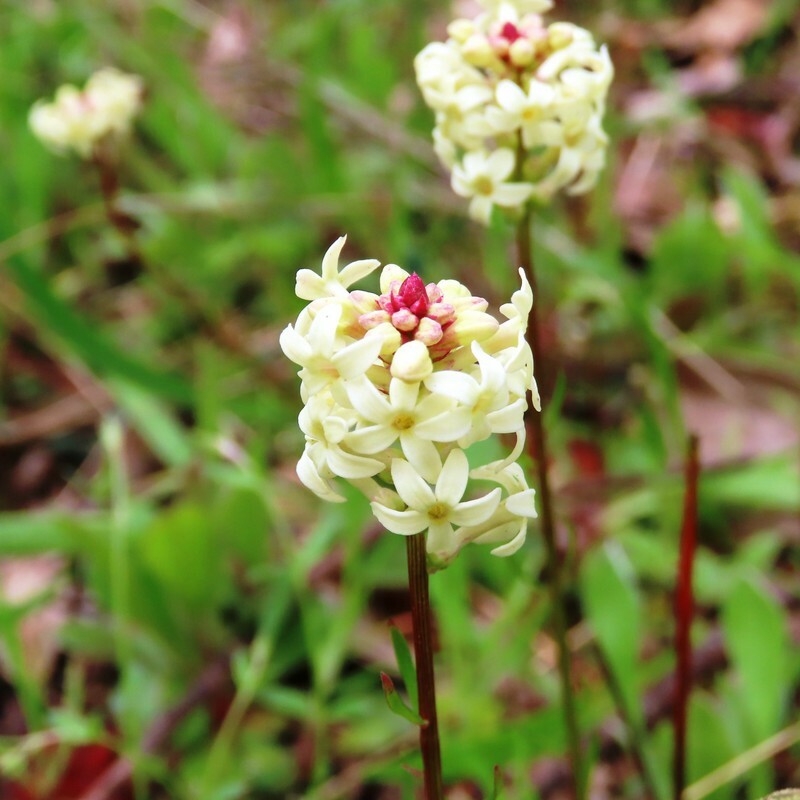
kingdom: Plantae
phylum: Tracheophyta
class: Magnoliopsida
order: Celastrales
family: Celastraceae
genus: Stackhousia
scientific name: Stackhousia monogyna
